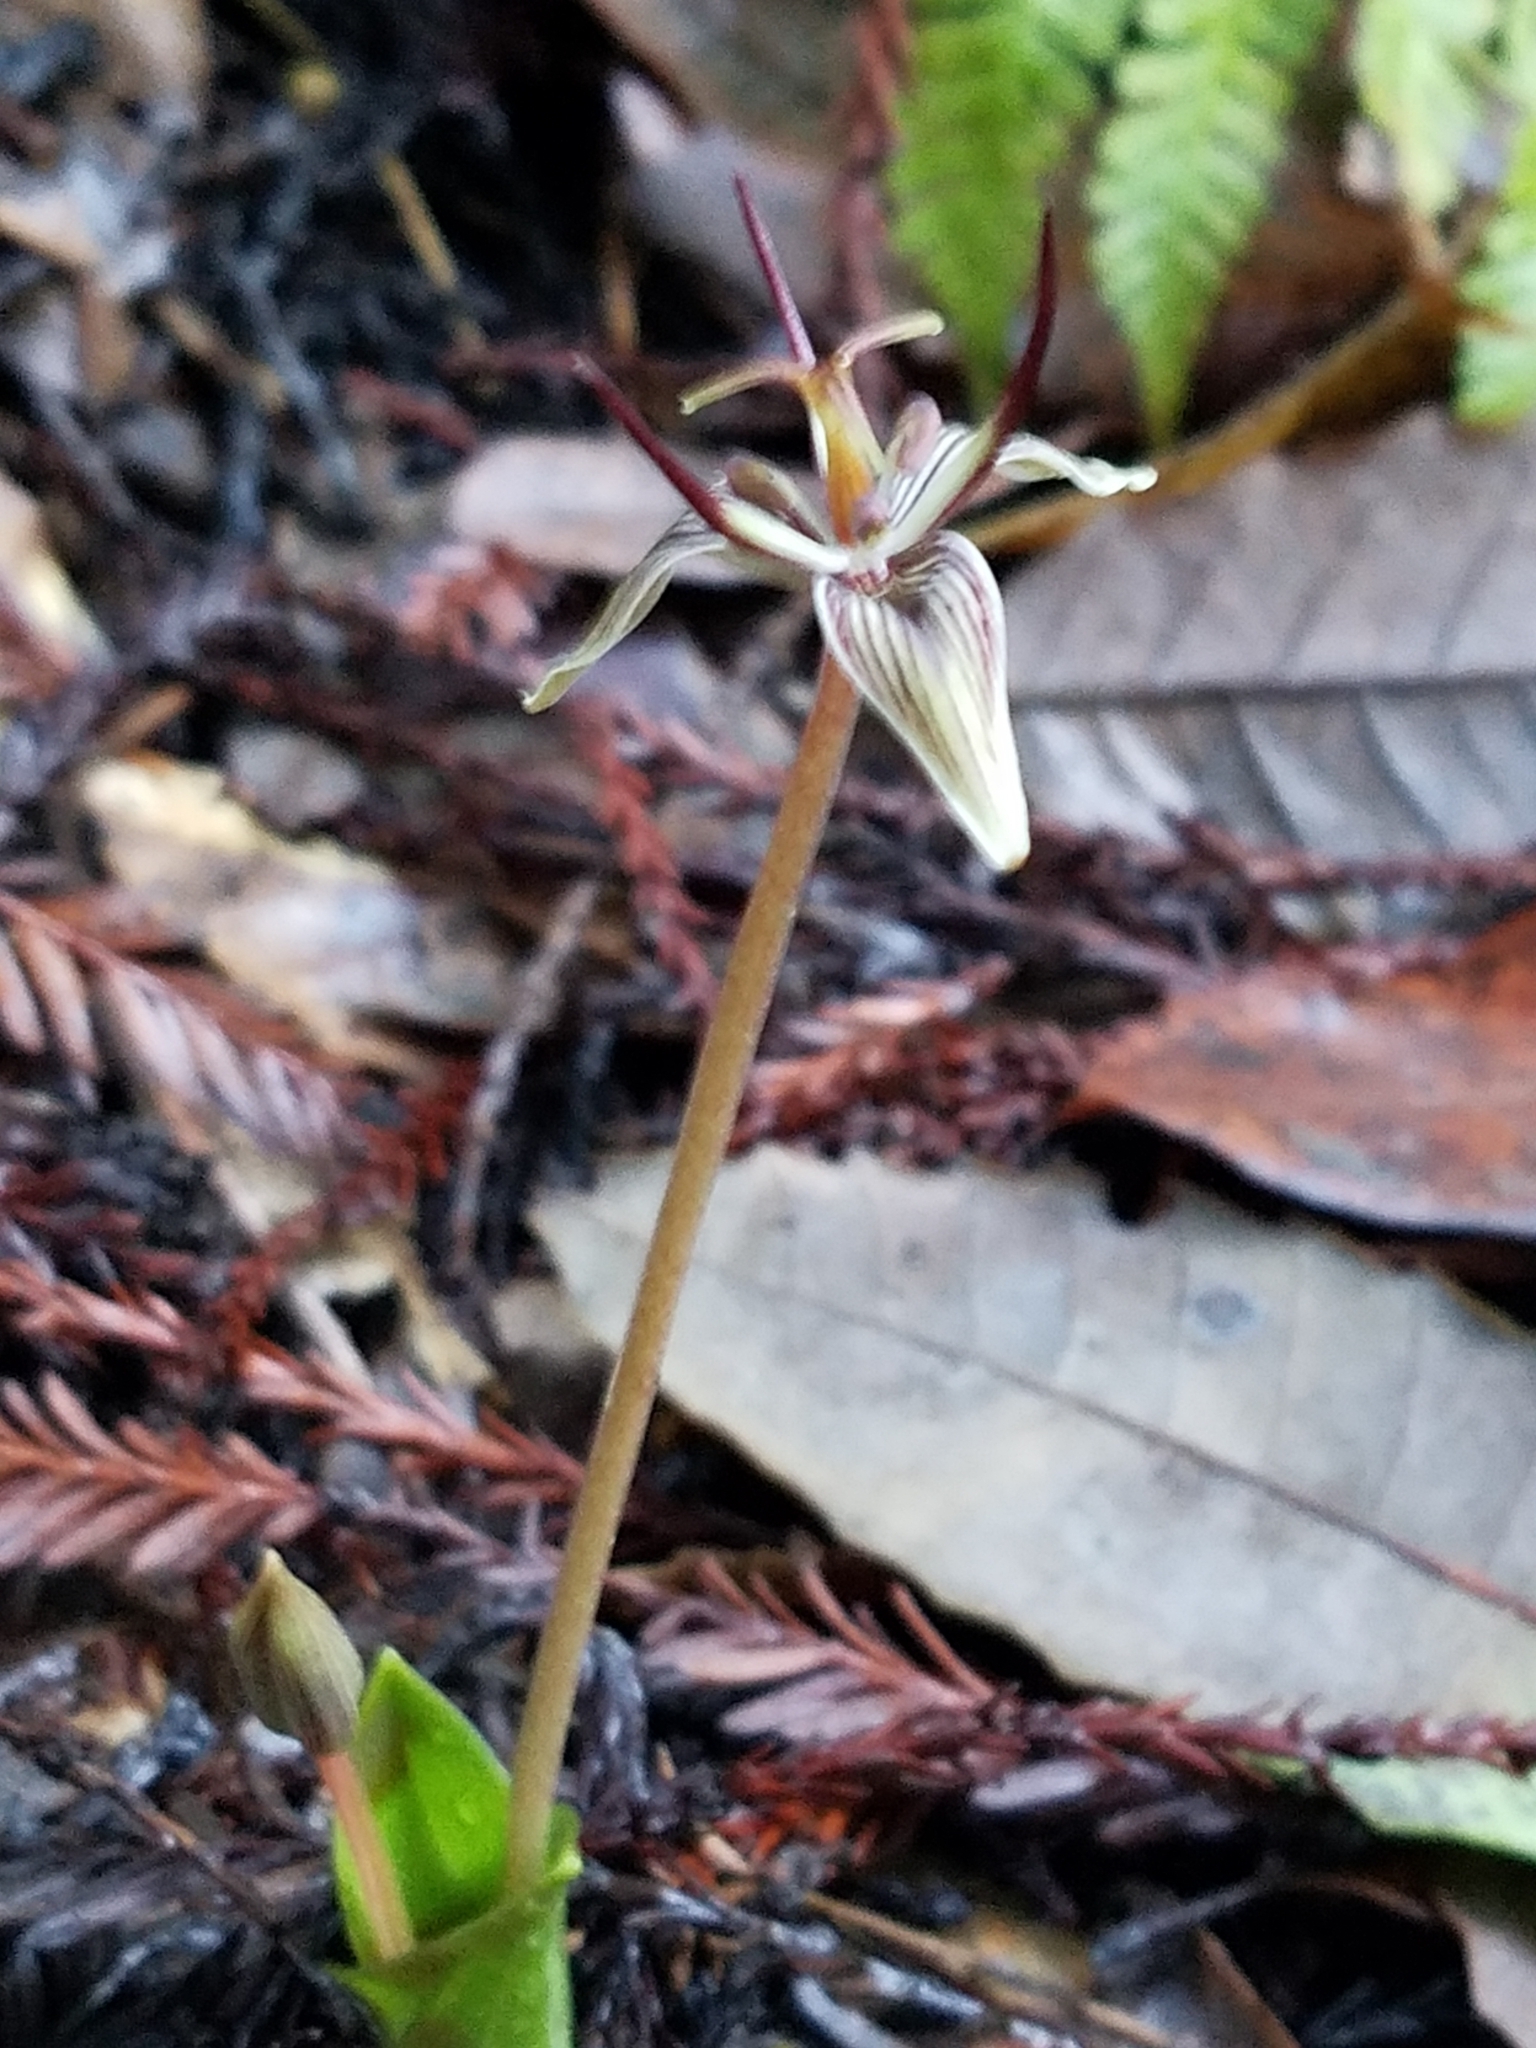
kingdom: Plantae
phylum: Tracheophyta
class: Liliopsida
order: Liliales
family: Liliaceae
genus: Scoliopus
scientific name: Scoliopus bigelovii
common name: Foetid adder's-tongue
